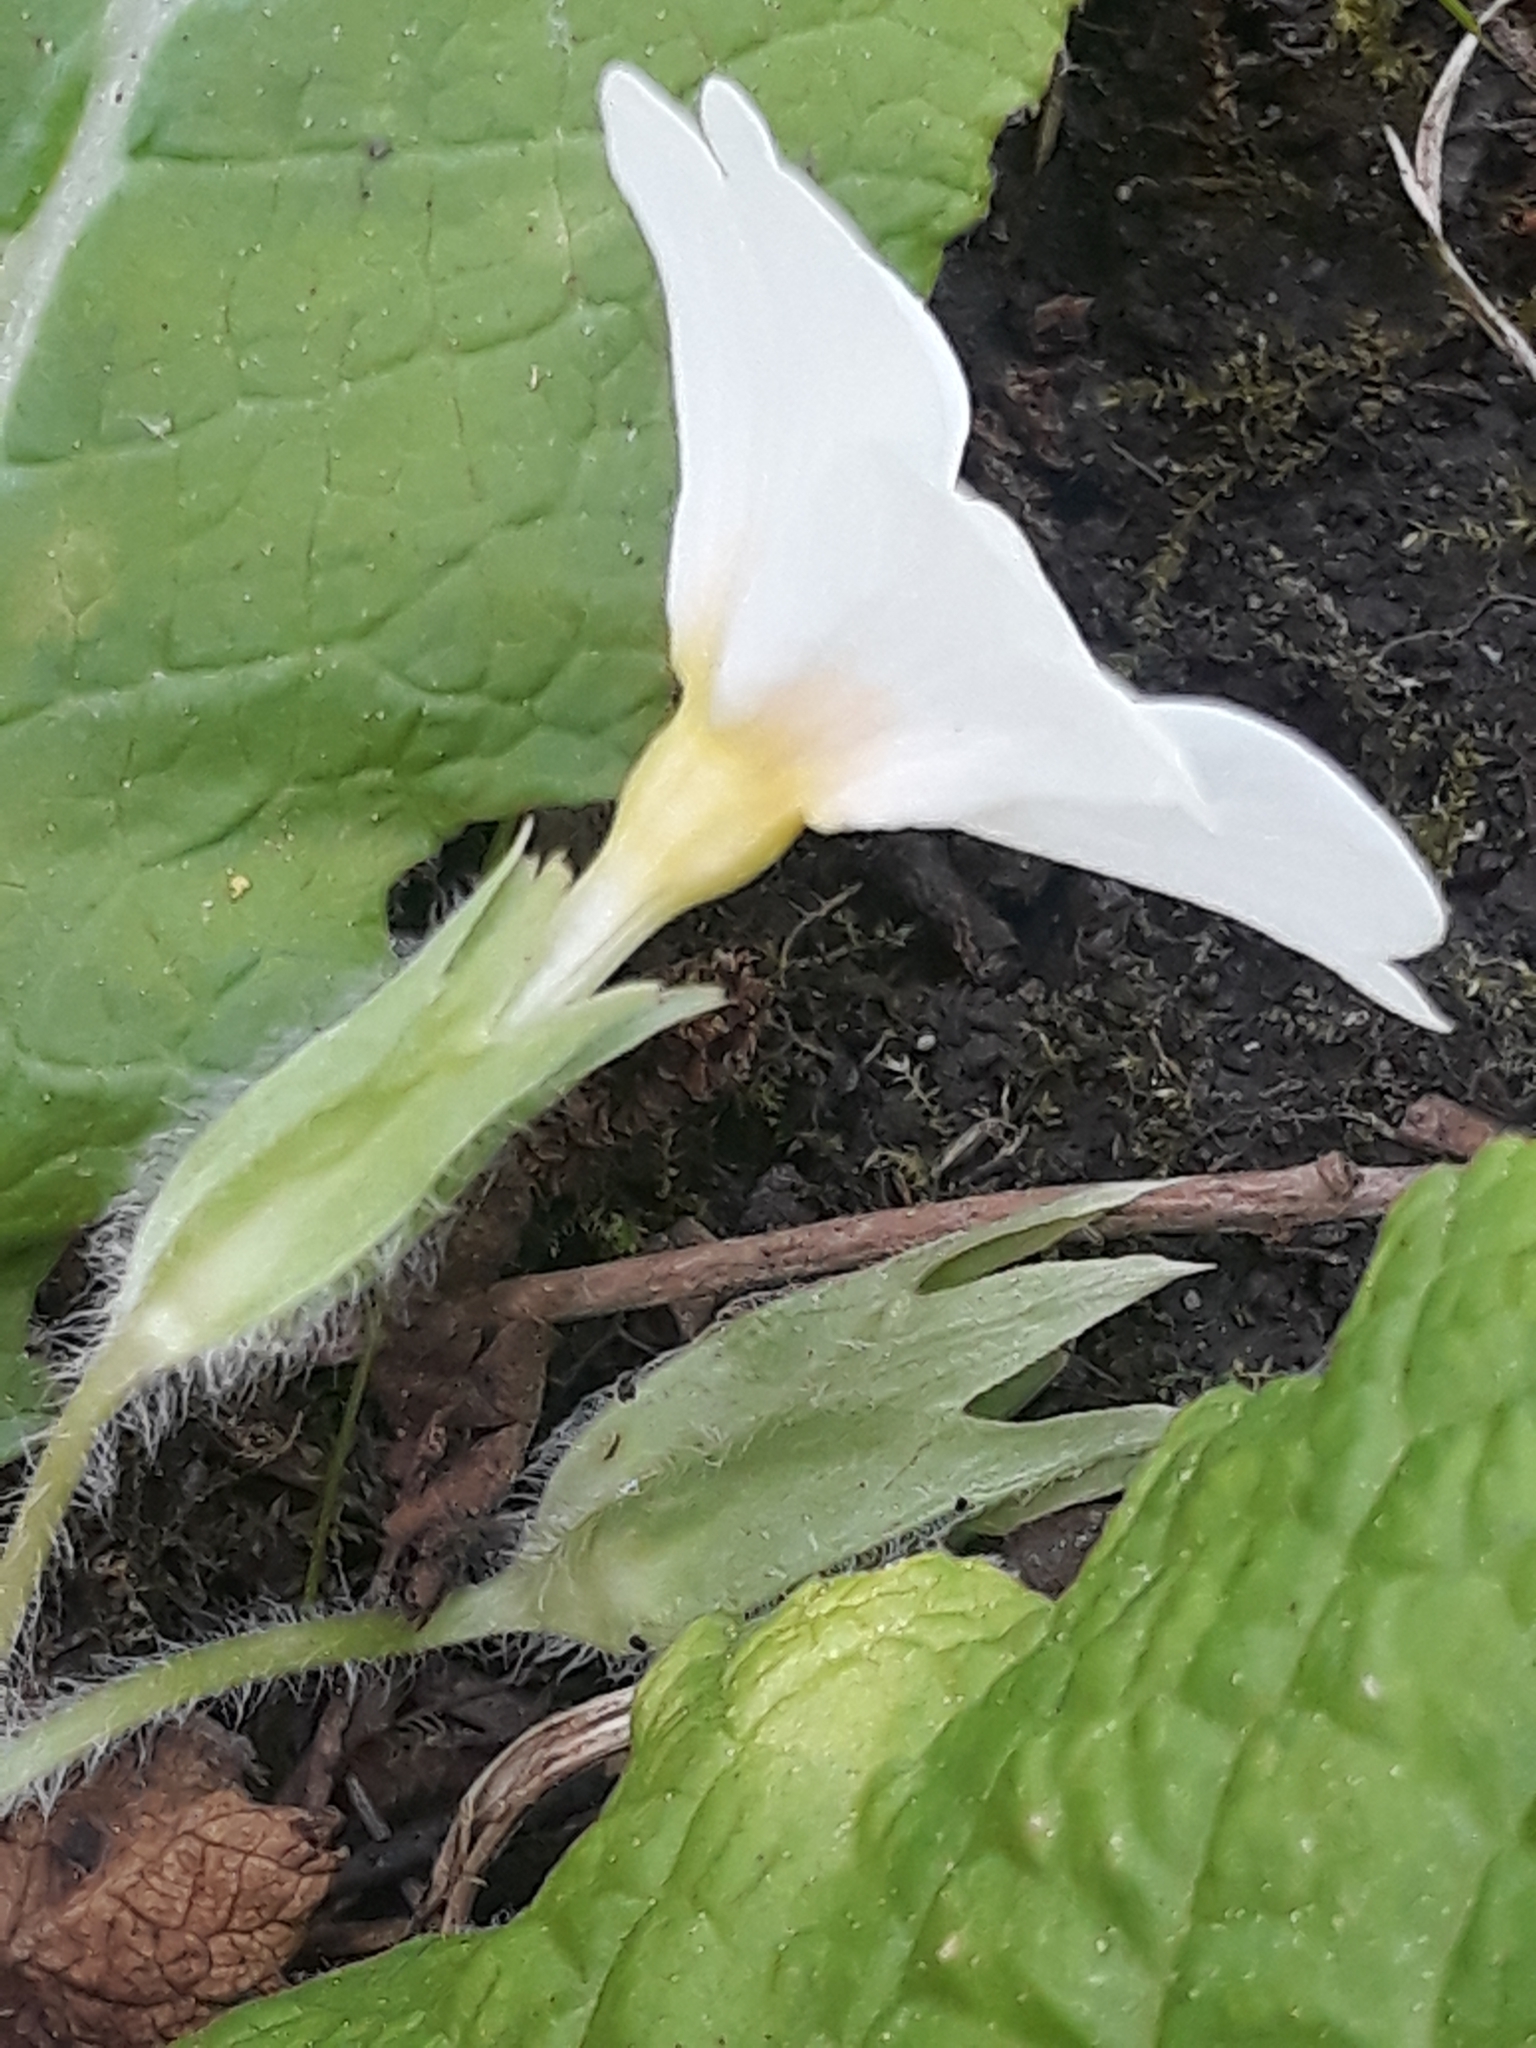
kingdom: Plantae
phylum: Tracheophyta
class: Magnoliopsida
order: Ericales
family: Primulaceae
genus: Primula
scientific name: Primula vulgaris
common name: Primrose
